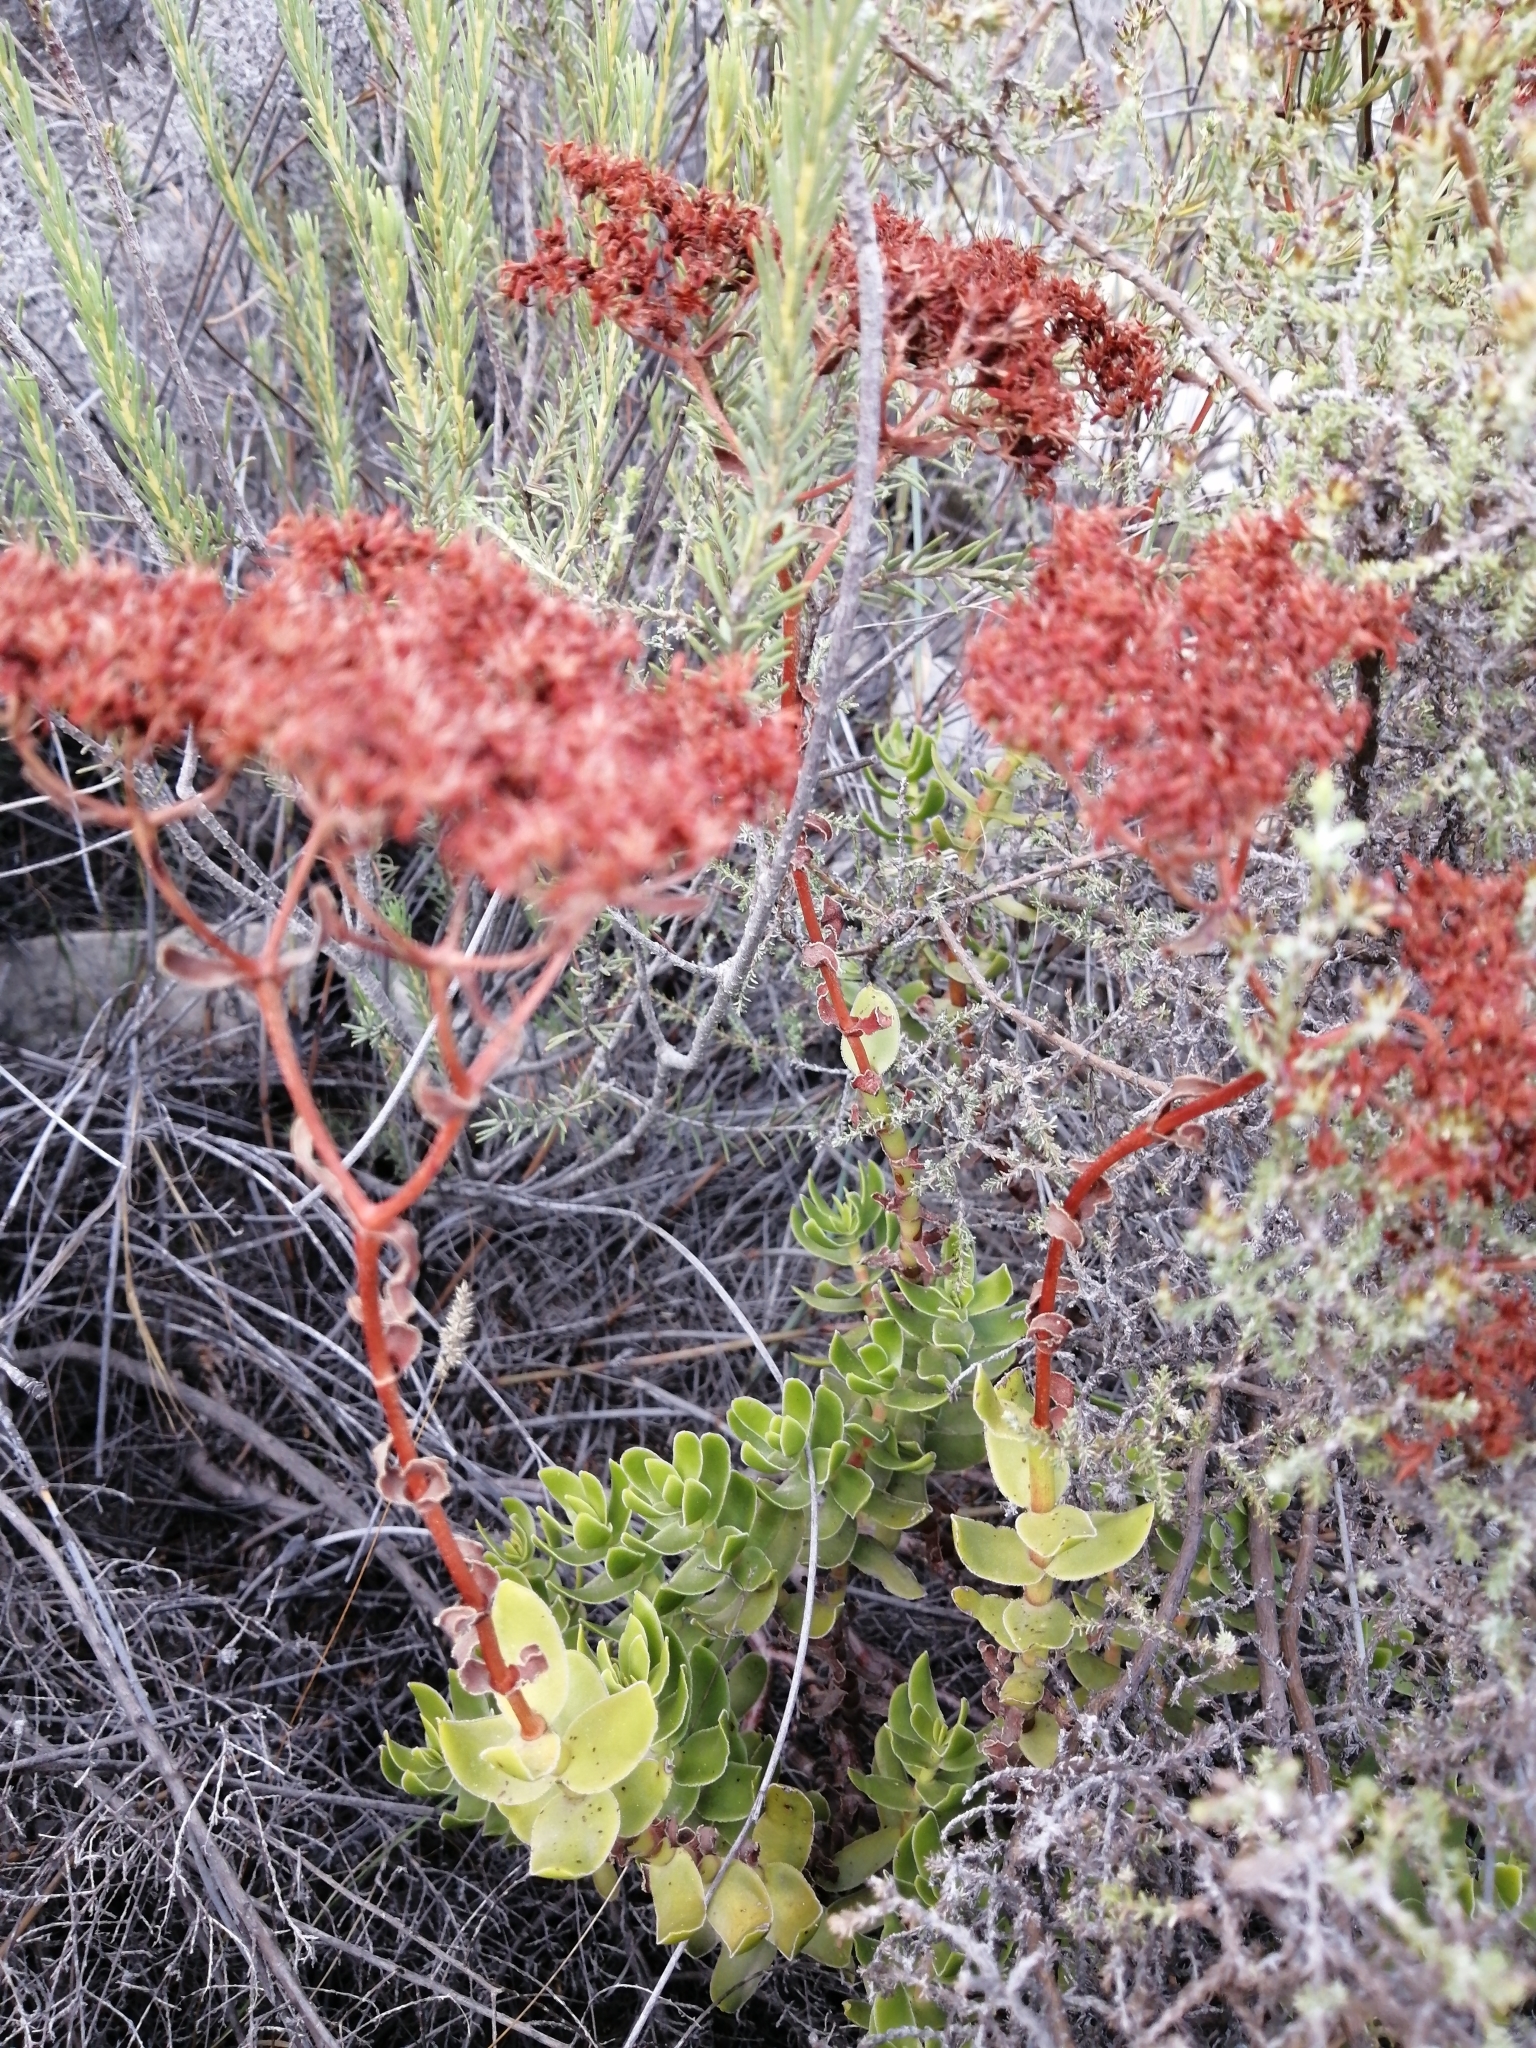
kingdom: Plantae
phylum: Tracheophyta
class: Magnoliopsida
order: Saxifragales
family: Crassulaceae
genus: Crassula
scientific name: Crassula undulata
